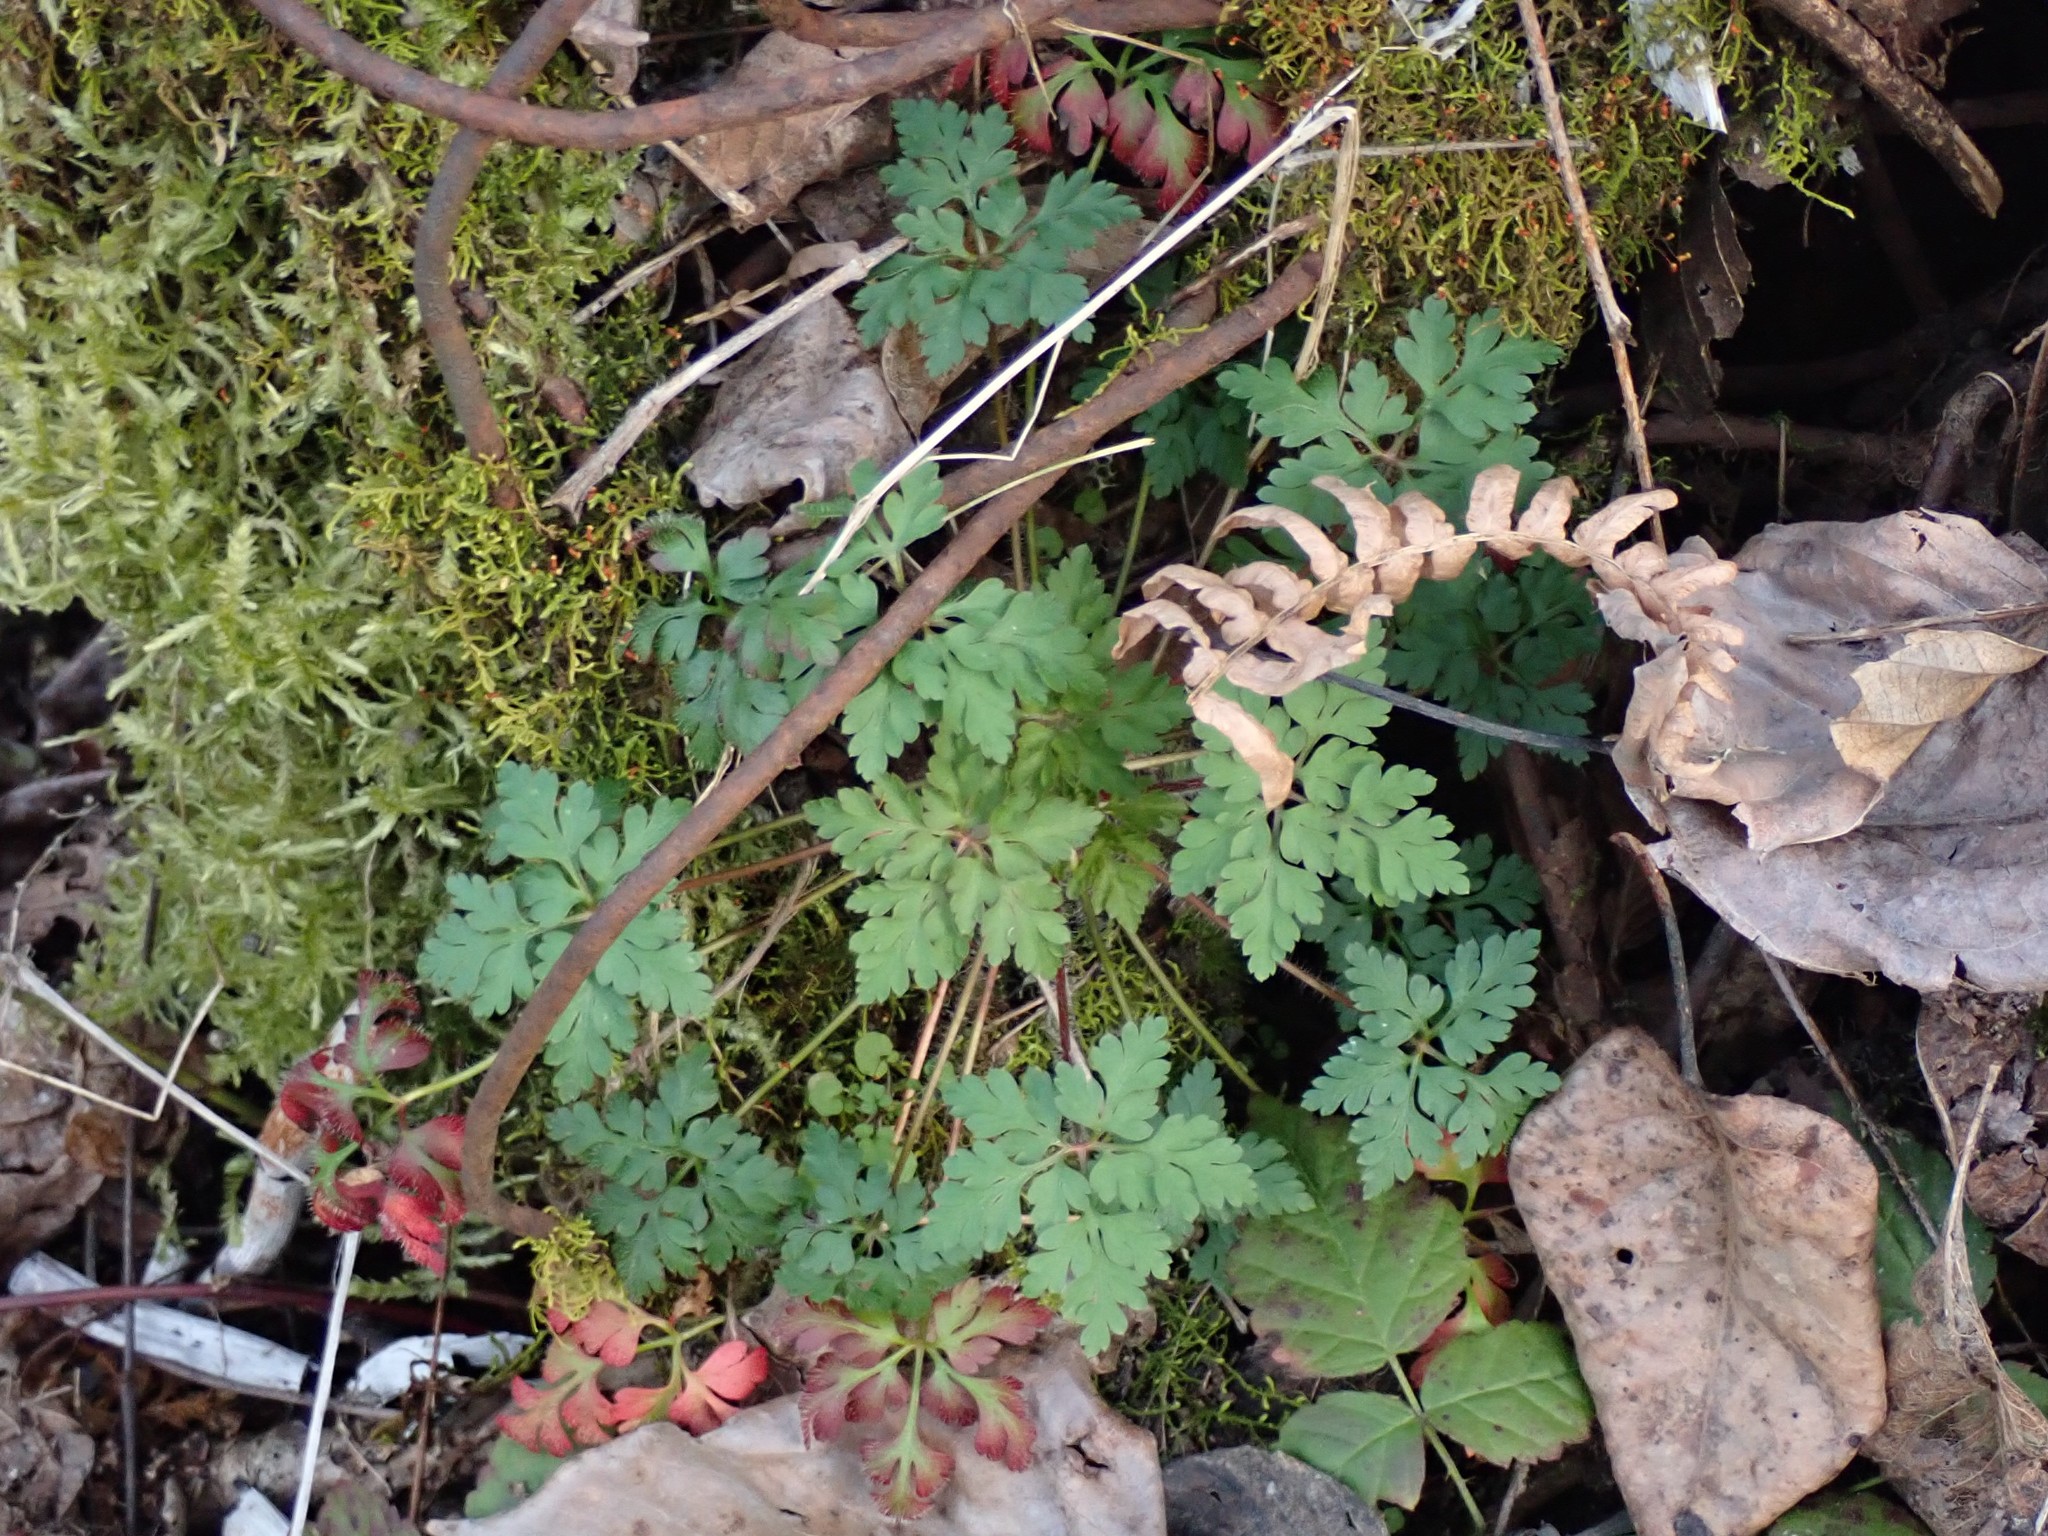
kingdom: Plantae
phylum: Tracheophyta
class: Magnoliopsida
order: Geraniales
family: Geraniaceae
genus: Geranium
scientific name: Geranium robertianum
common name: Herb-robert
